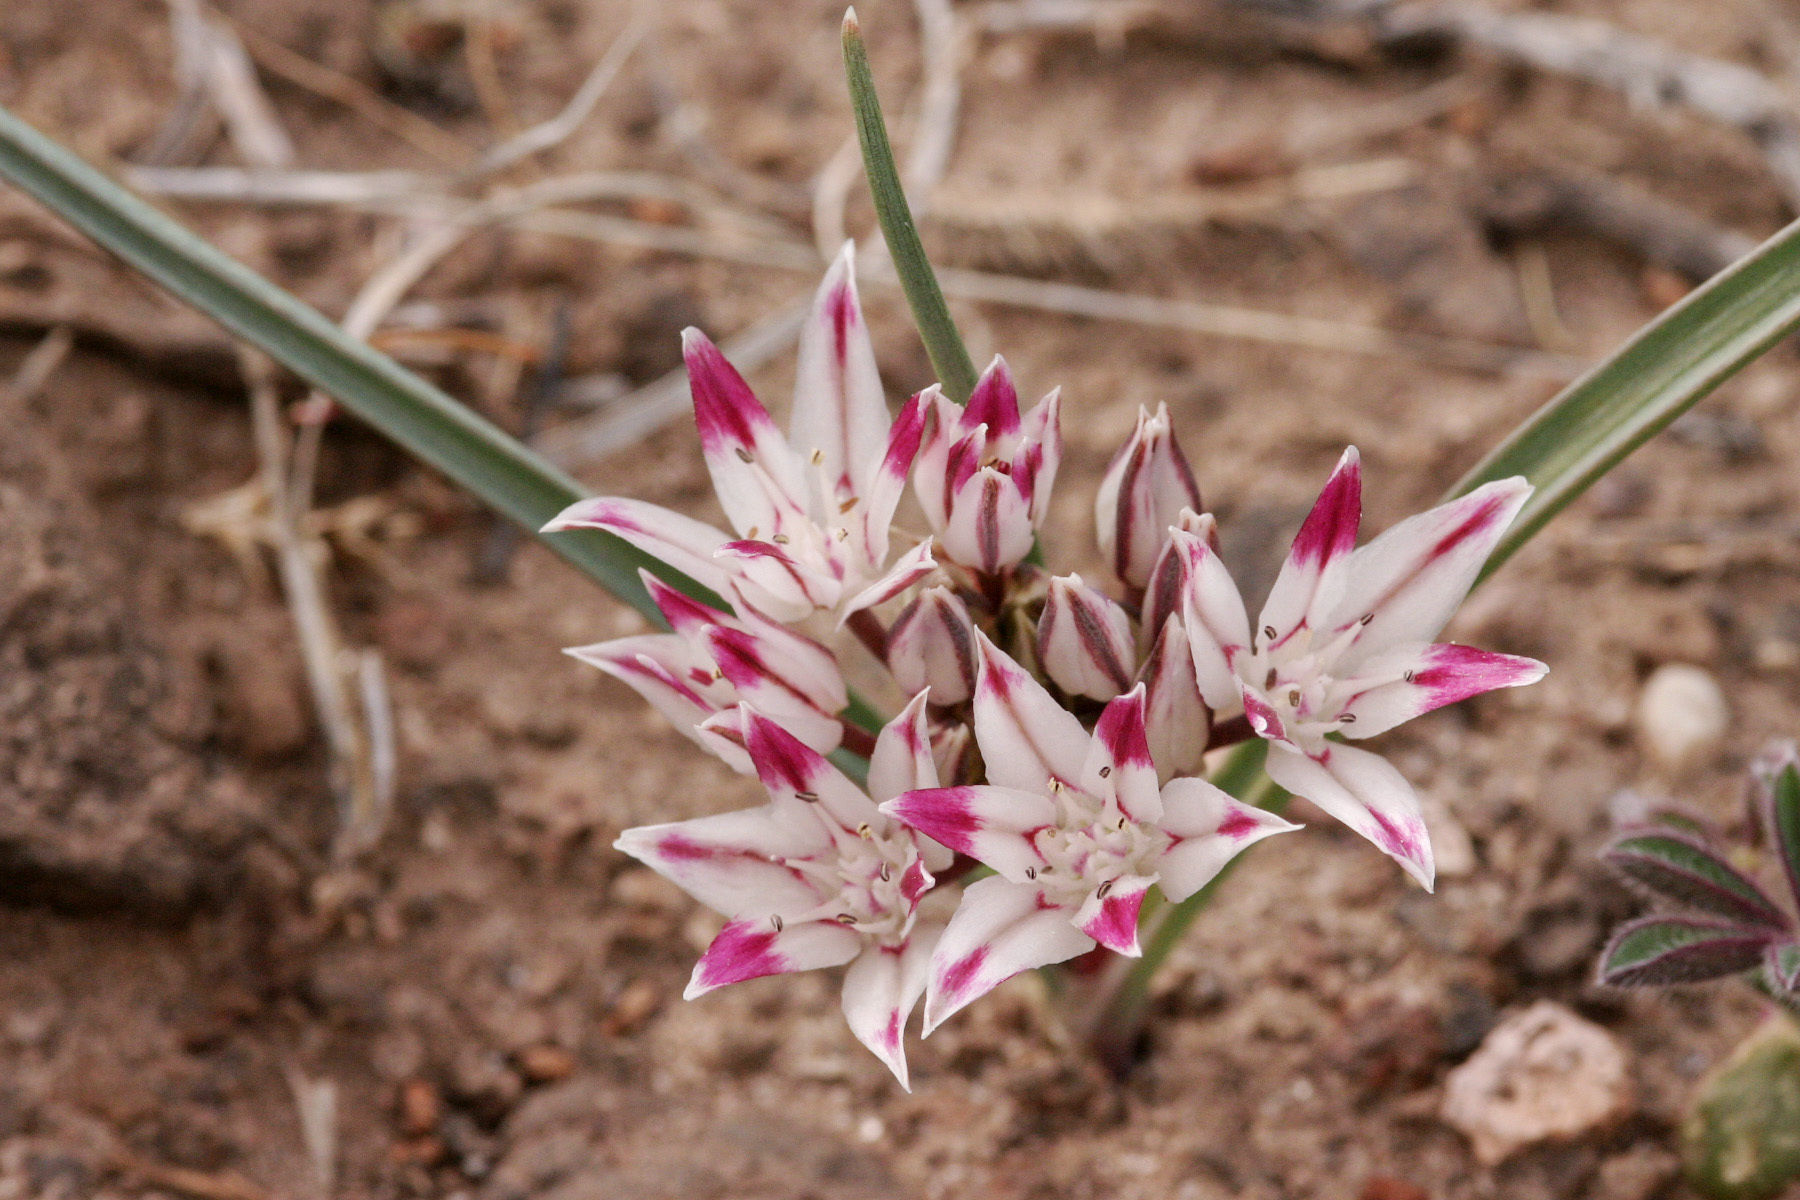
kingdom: Plantae
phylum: Tracheophyta
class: Liliopsida
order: Asparagales
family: Amaryllidaceae
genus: Allium
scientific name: Allium bigelovii
